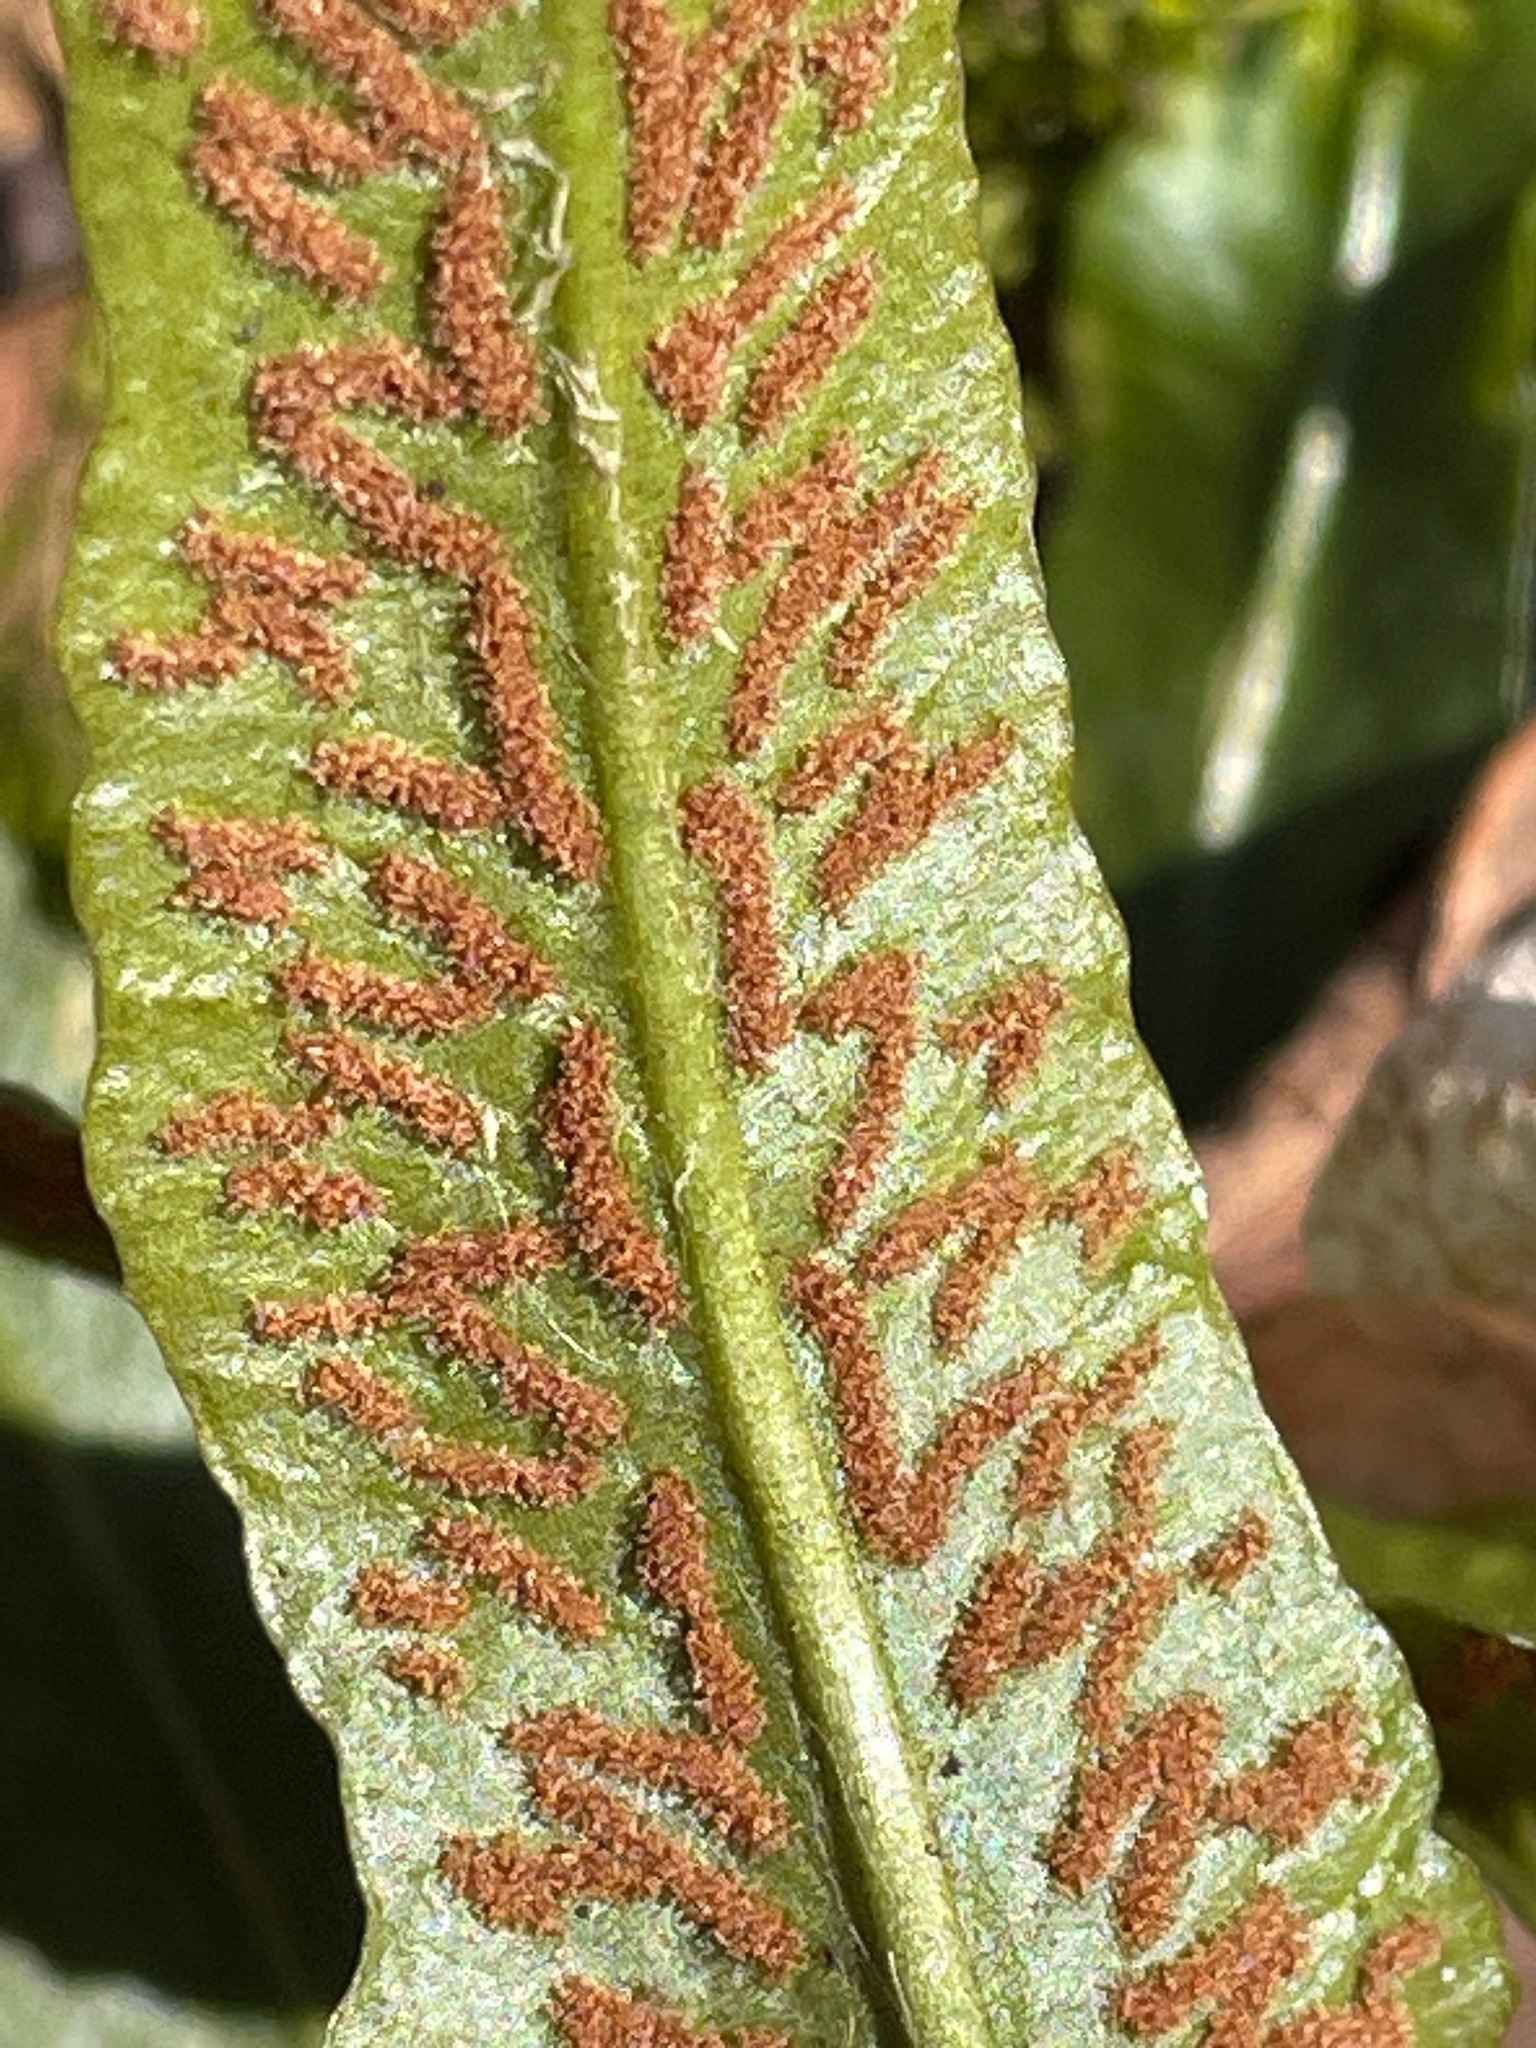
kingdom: Plantae
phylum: Tracheophyta
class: Polypodiopsida
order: Polypodiales
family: Aspleniaceae
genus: Asplenium
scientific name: Asplenium rhizophyllum
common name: Walking fern
